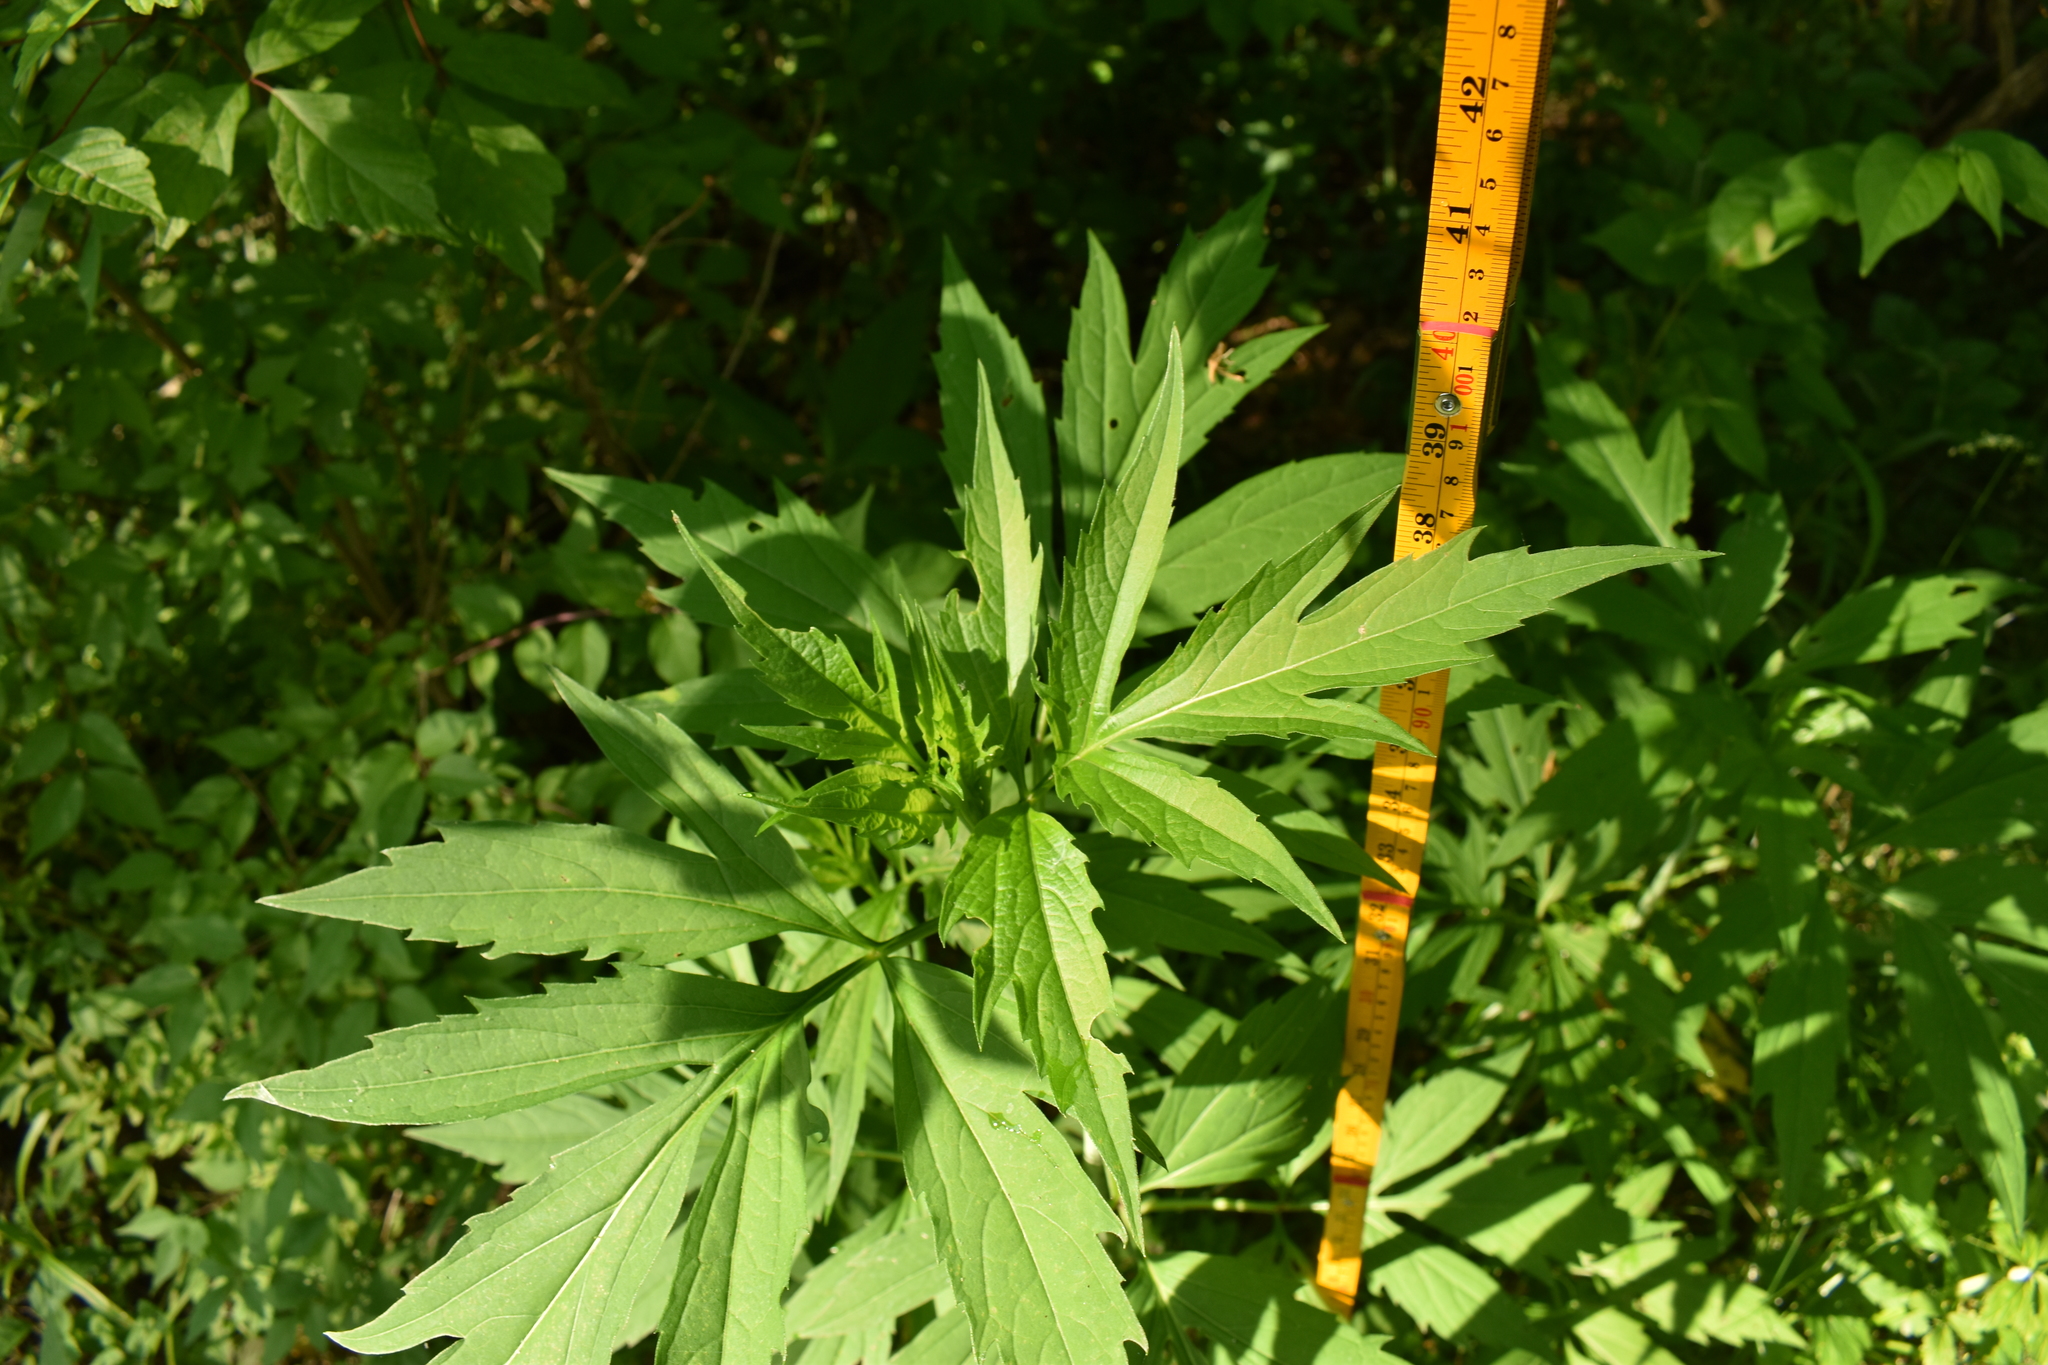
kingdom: Plantae
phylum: Tracheophyta
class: Magnoliopsida
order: Asterales
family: Asteraceae
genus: Rudbeckia
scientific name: Rudbeckia laciniata
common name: Coneflower
